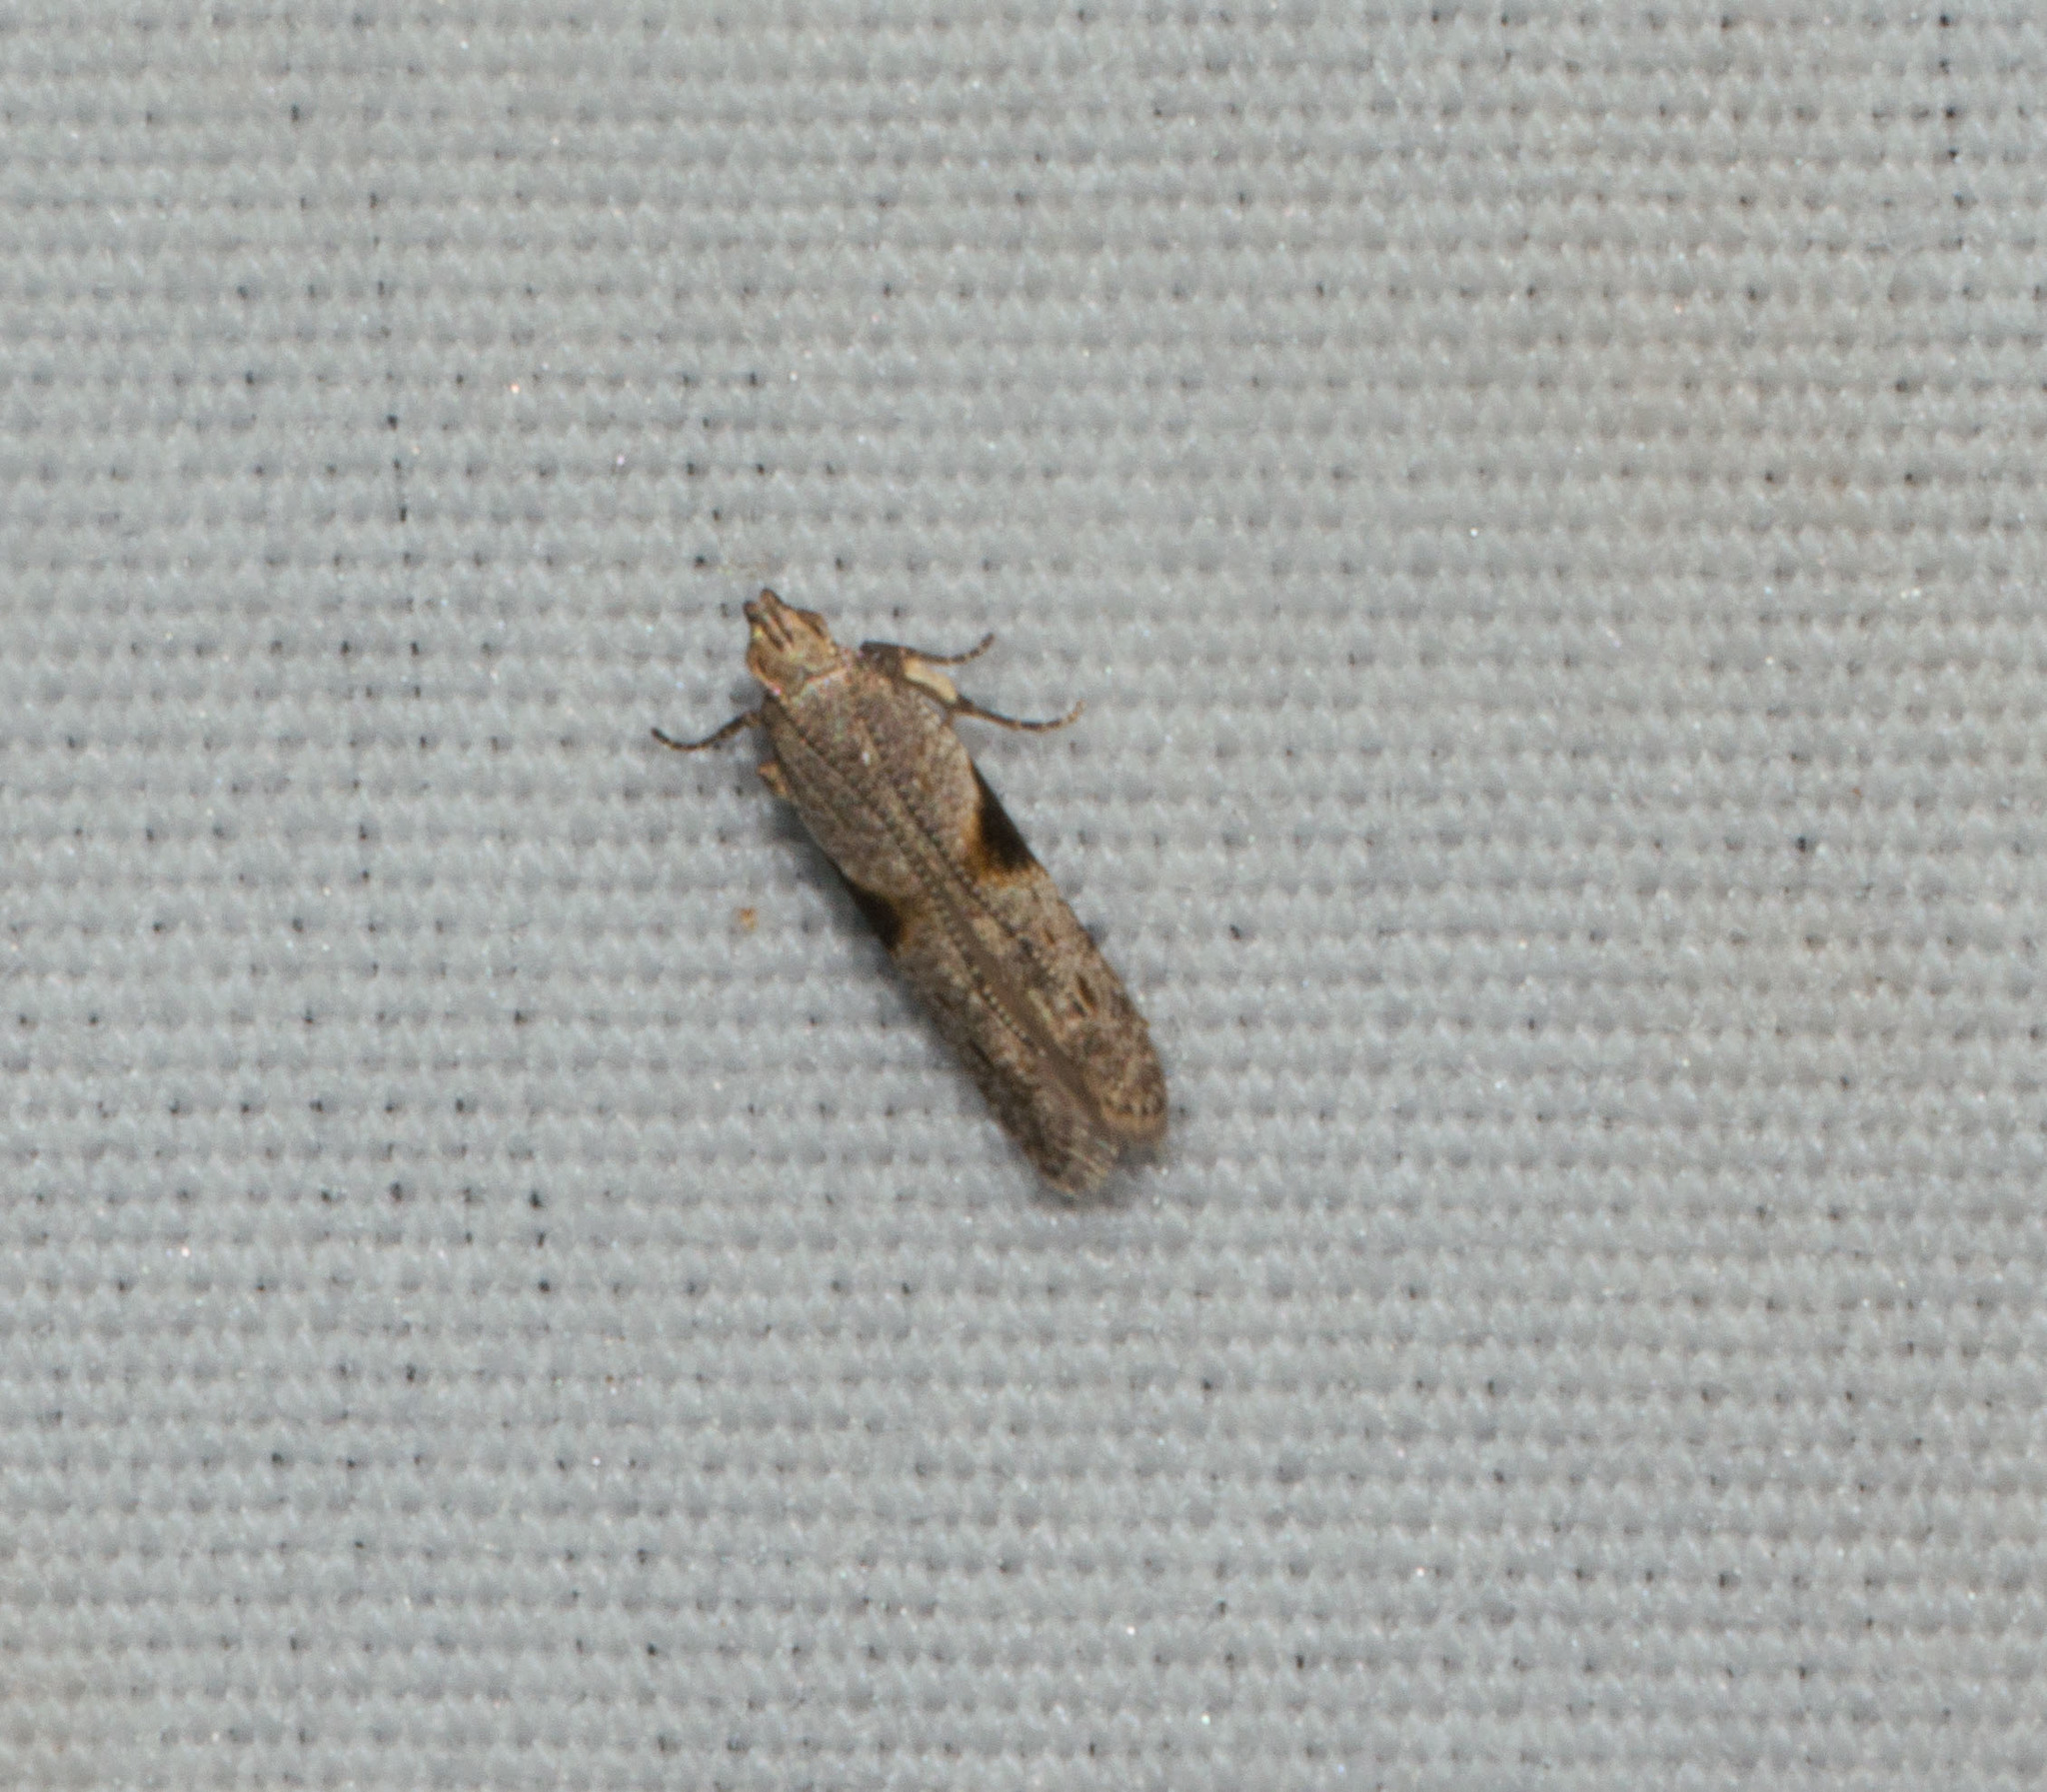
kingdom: Animalia
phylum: Arthropoda
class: Insecta
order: Lepidoptera
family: Gelechiidae
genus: Merimnetria
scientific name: Merimnetria elegantior
